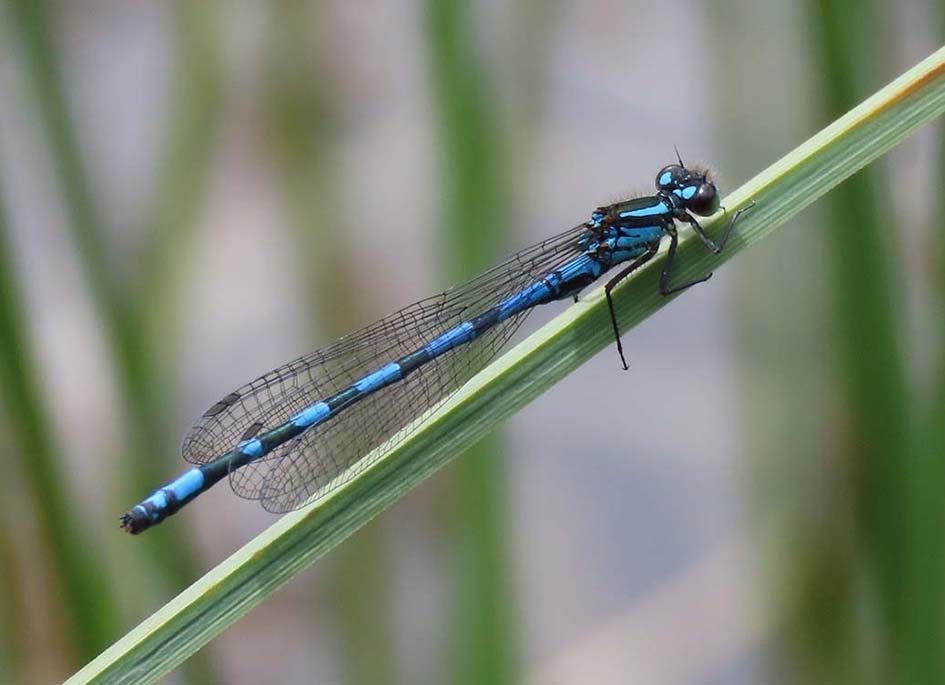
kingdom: Animalia
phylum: Arthropoda
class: Insecta
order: Odonata
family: Coenagrionidae
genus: Coenagrion
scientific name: Coenagrion hylas
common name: Frey's damselfly
